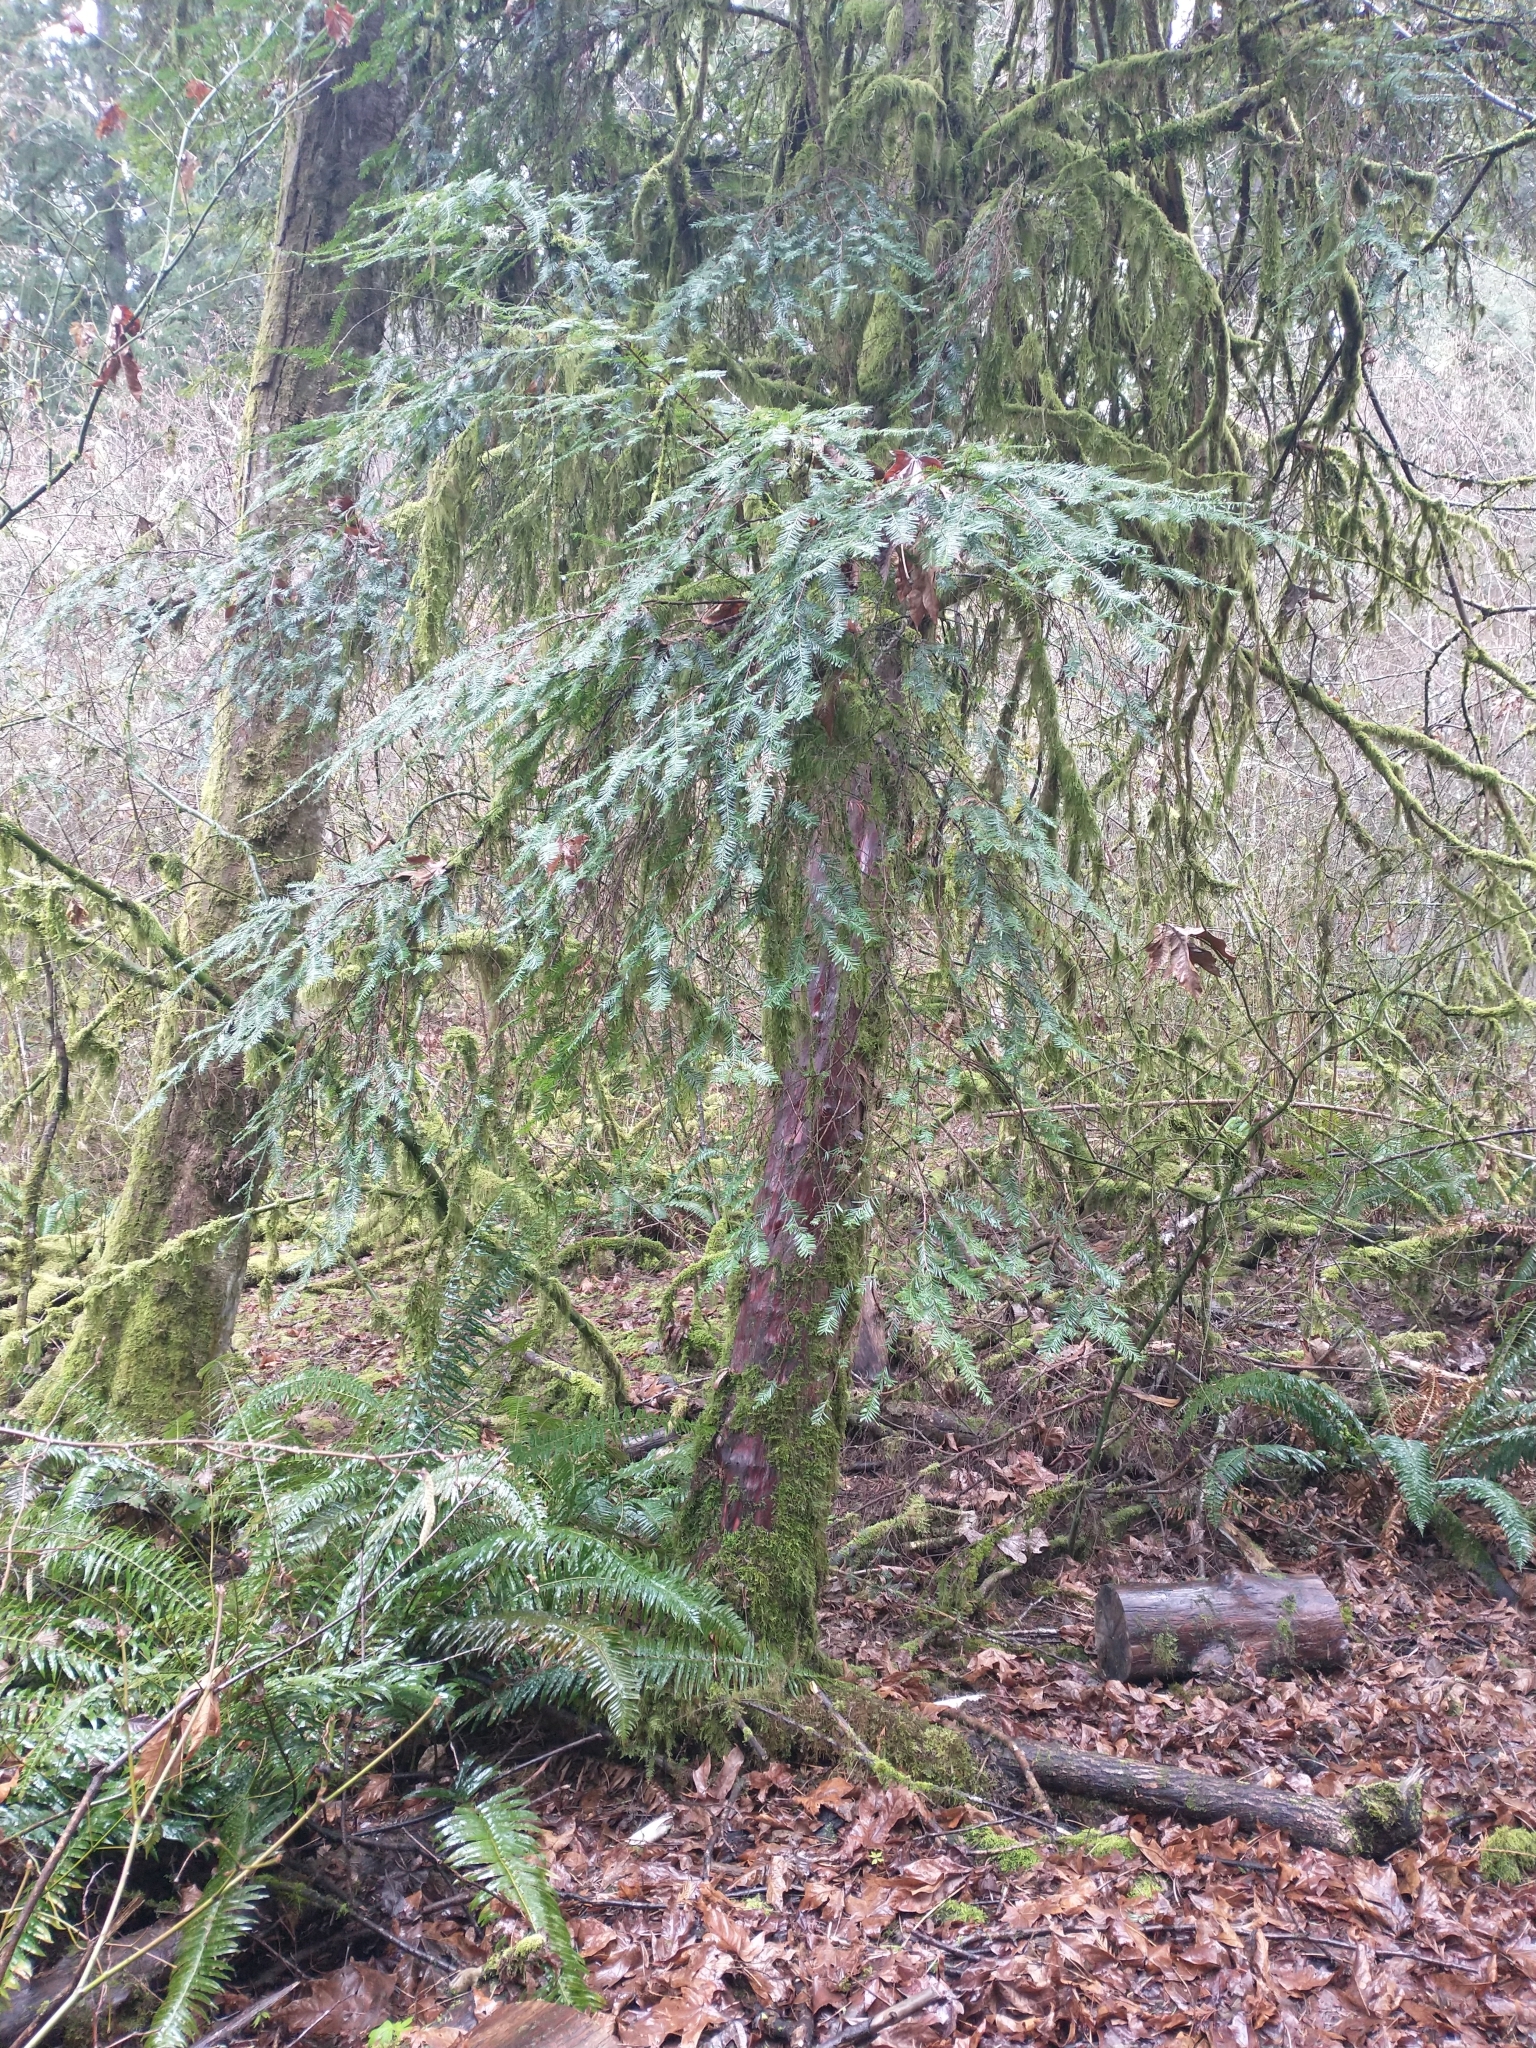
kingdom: Plantae
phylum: Tracheophyta
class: Pinopsida
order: Pinales
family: Taxaceae
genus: Taxus
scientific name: Taxus brevifolia
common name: Pacific yew
